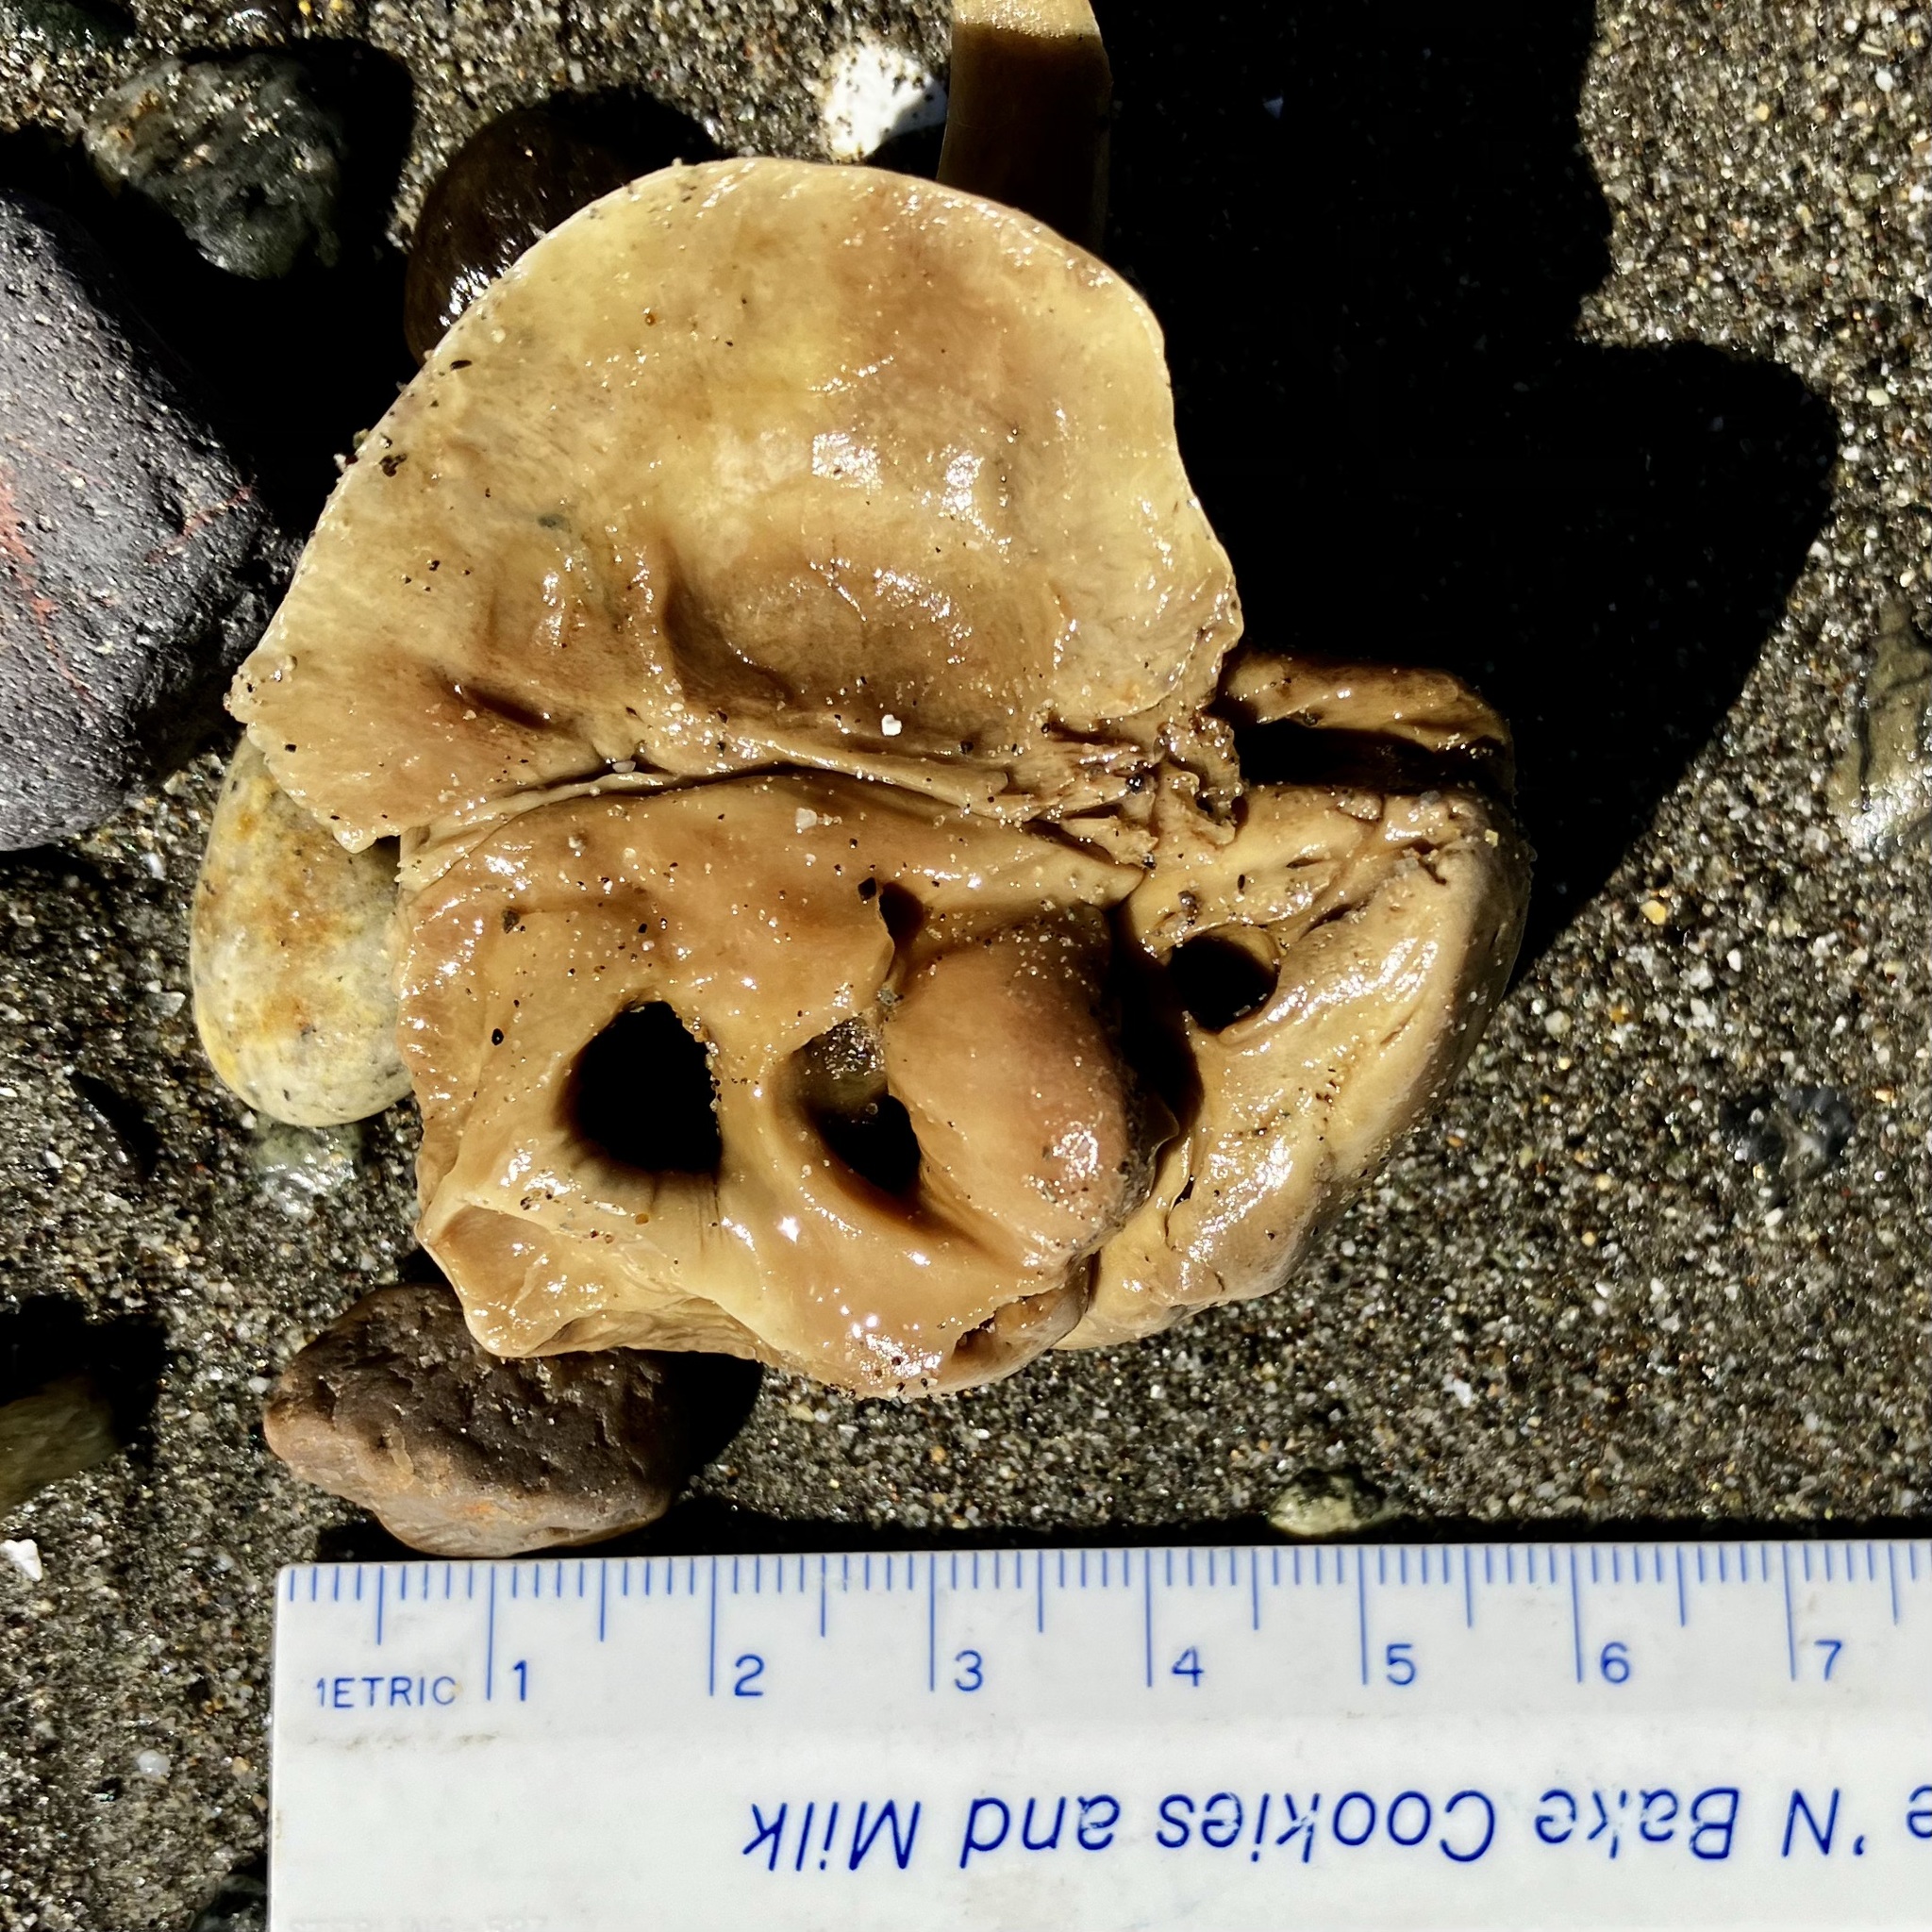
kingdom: Animalia
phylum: Chordata
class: Mammalia
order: Carnivora
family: Phocidae
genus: Phoca
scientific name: Phoca vitulina
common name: Harbor seal
